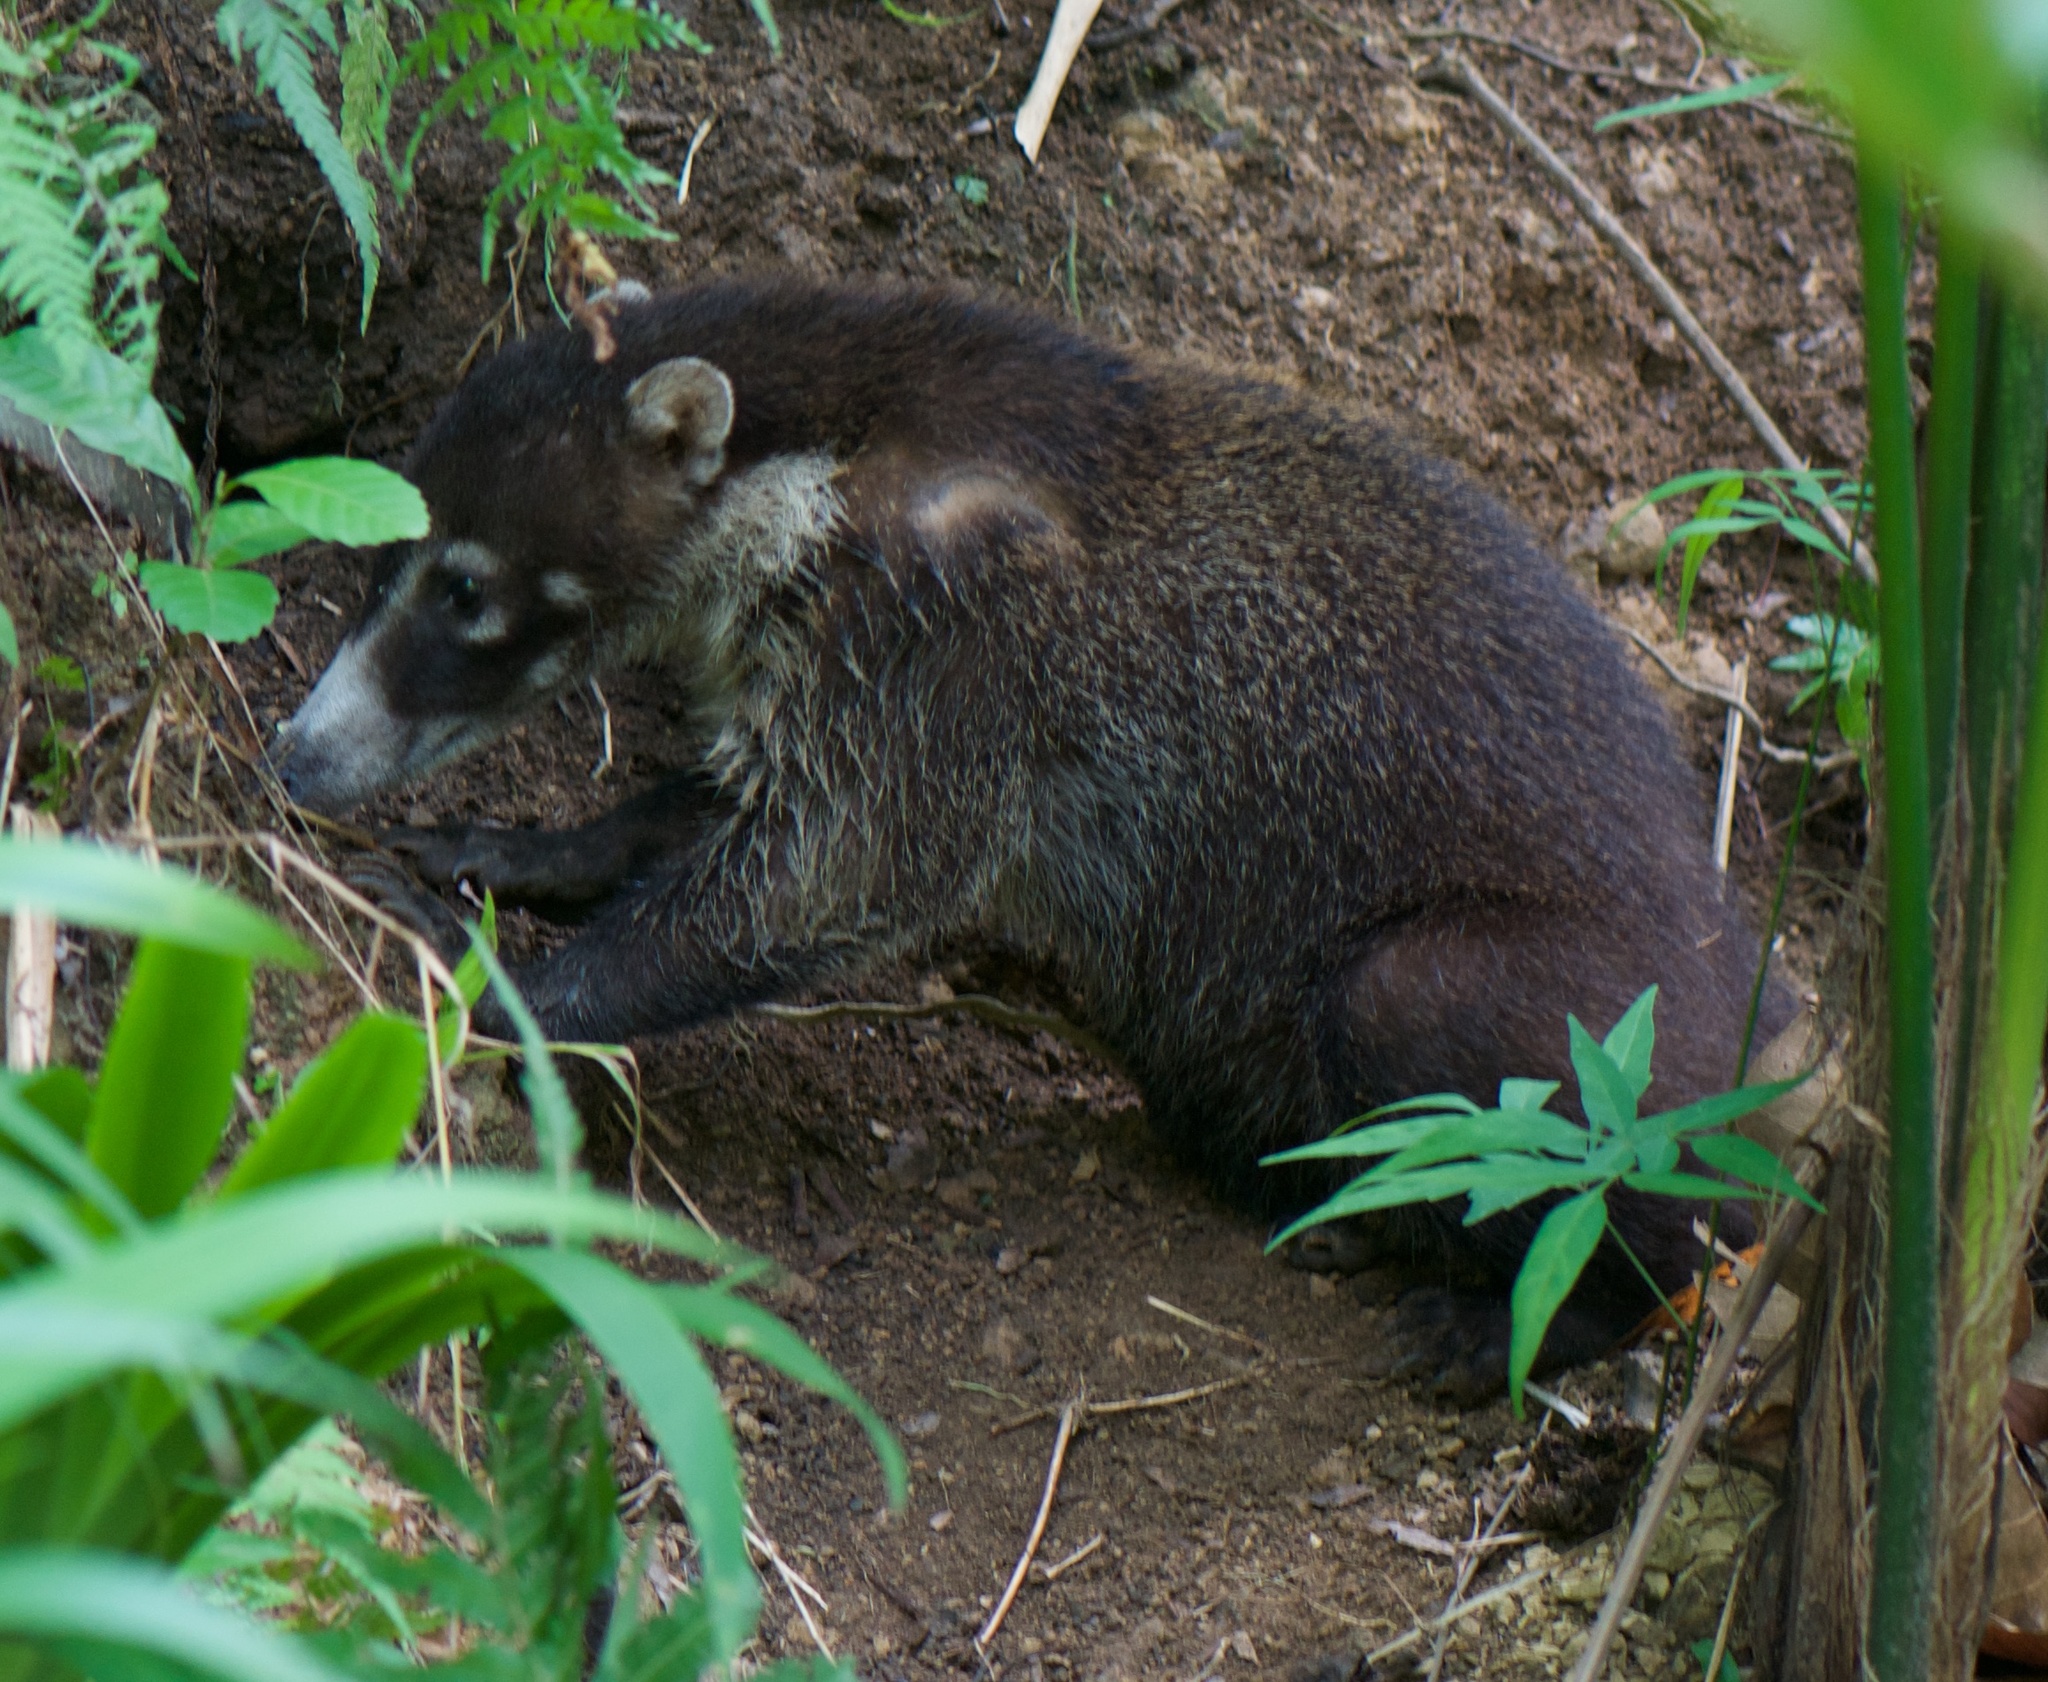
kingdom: Animalia
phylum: Chordata
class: Mammalia
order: Carnivora
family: Procyonidae
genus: Nasua
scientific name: Nasua narica
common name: White-nosed coati
